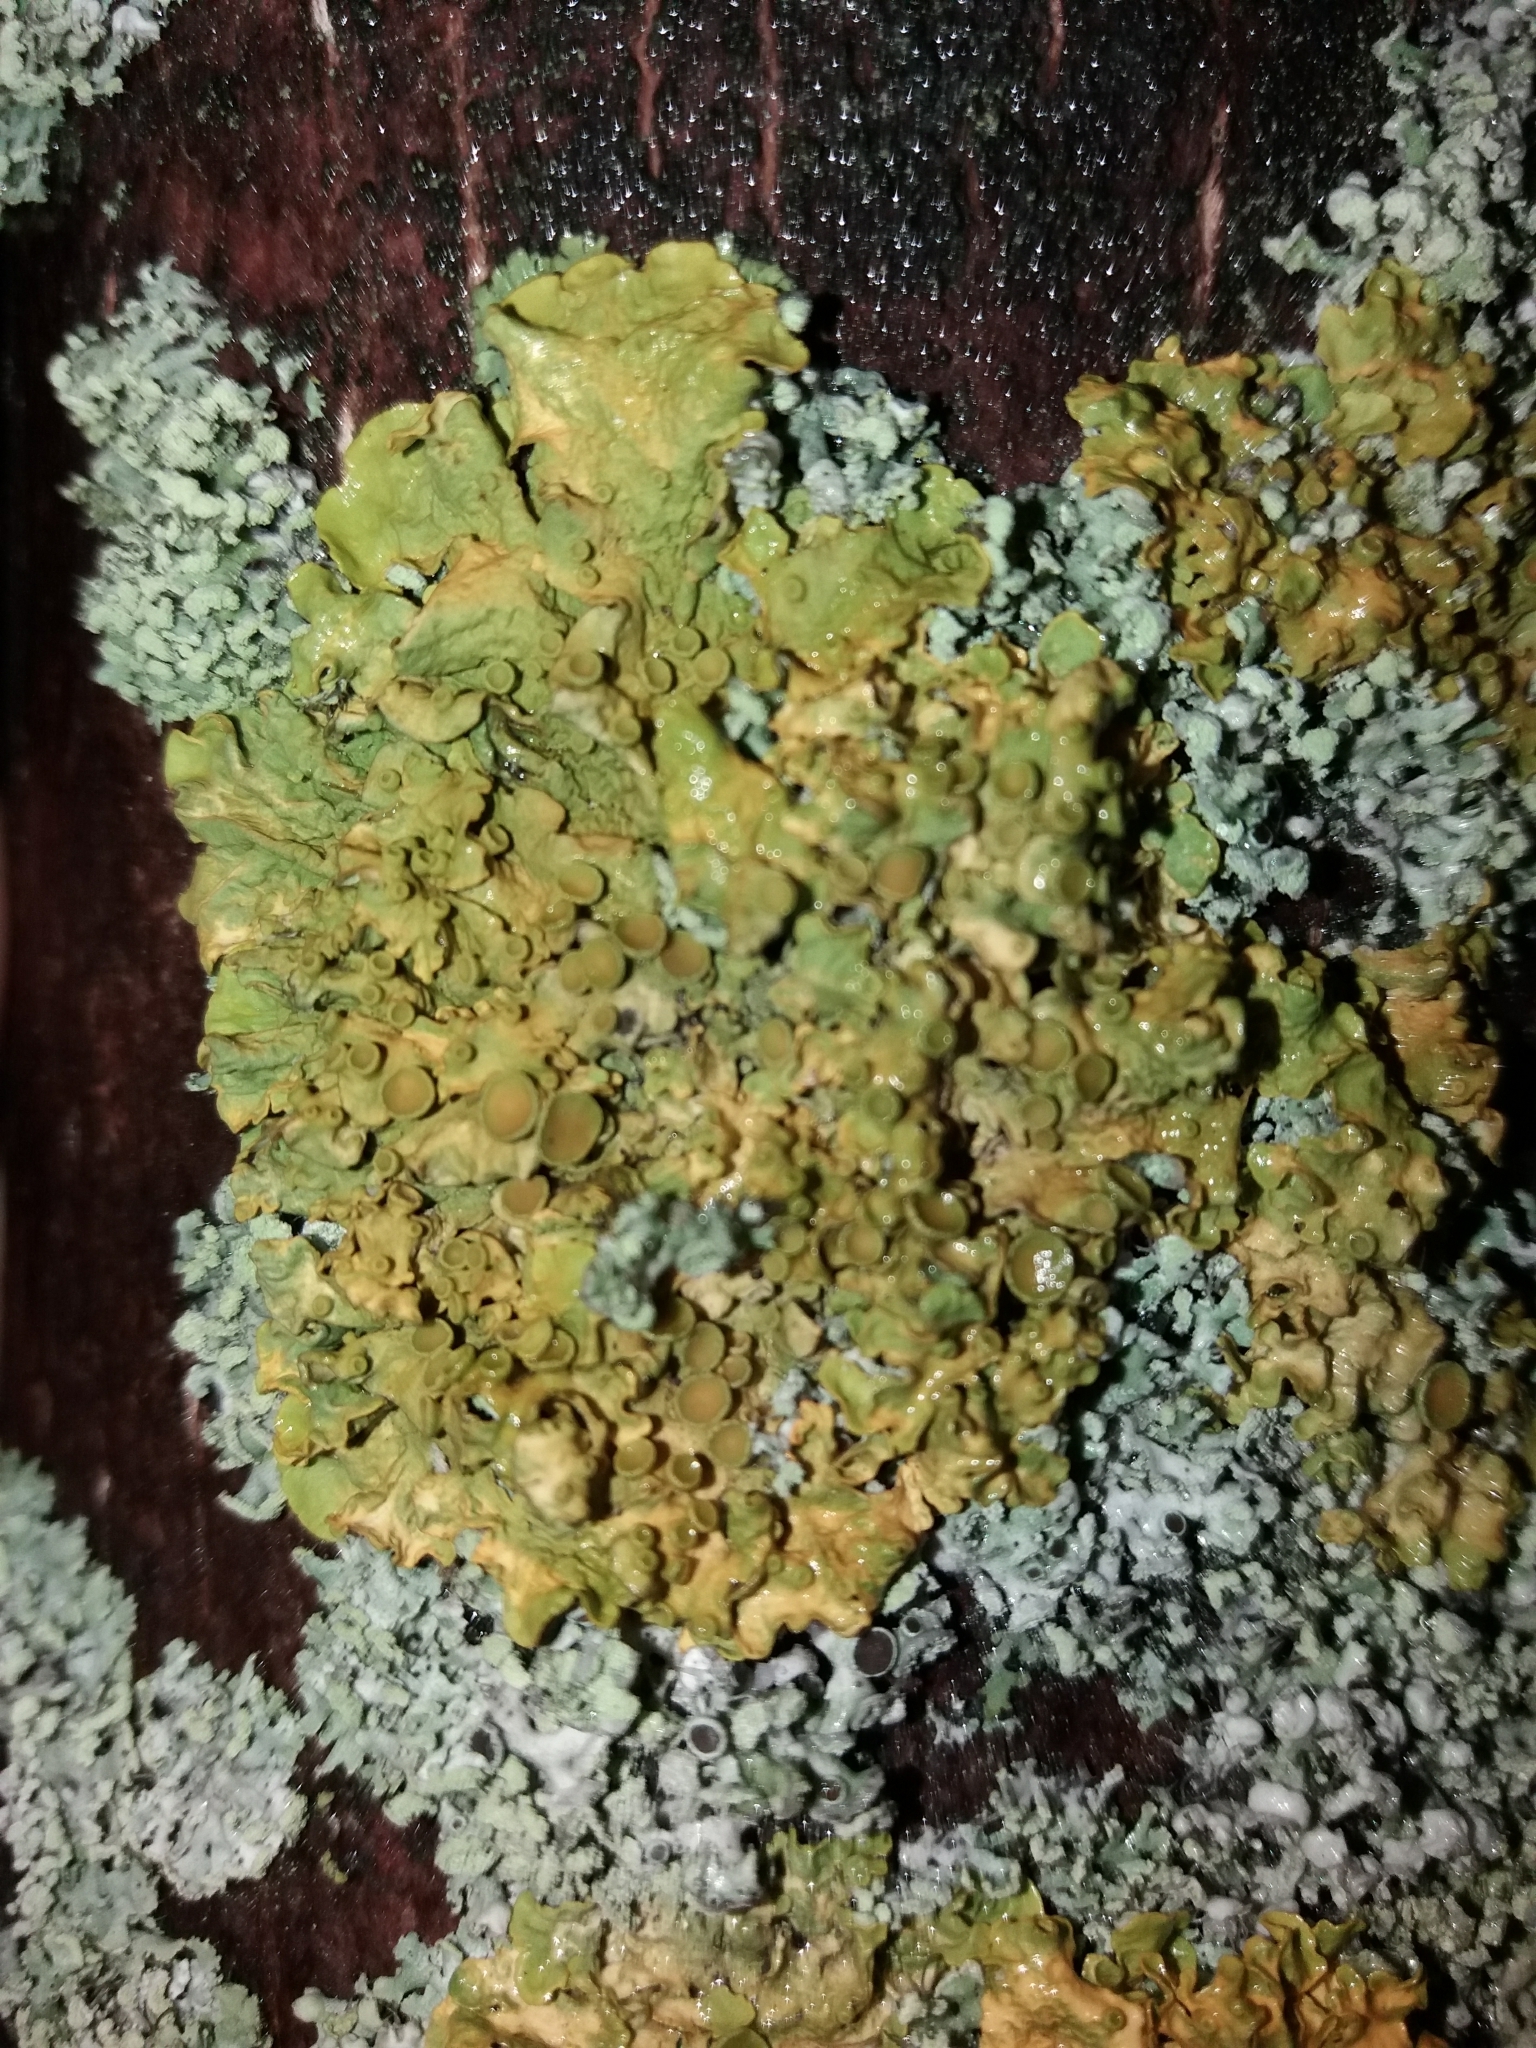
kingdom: Fungi
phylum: Ascomycota
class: Lecanoromycetes
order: Teloschistales
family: Teloschistaceae
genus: Xanthoria
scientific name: Xanthoria parietina
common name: Common orange lichen
